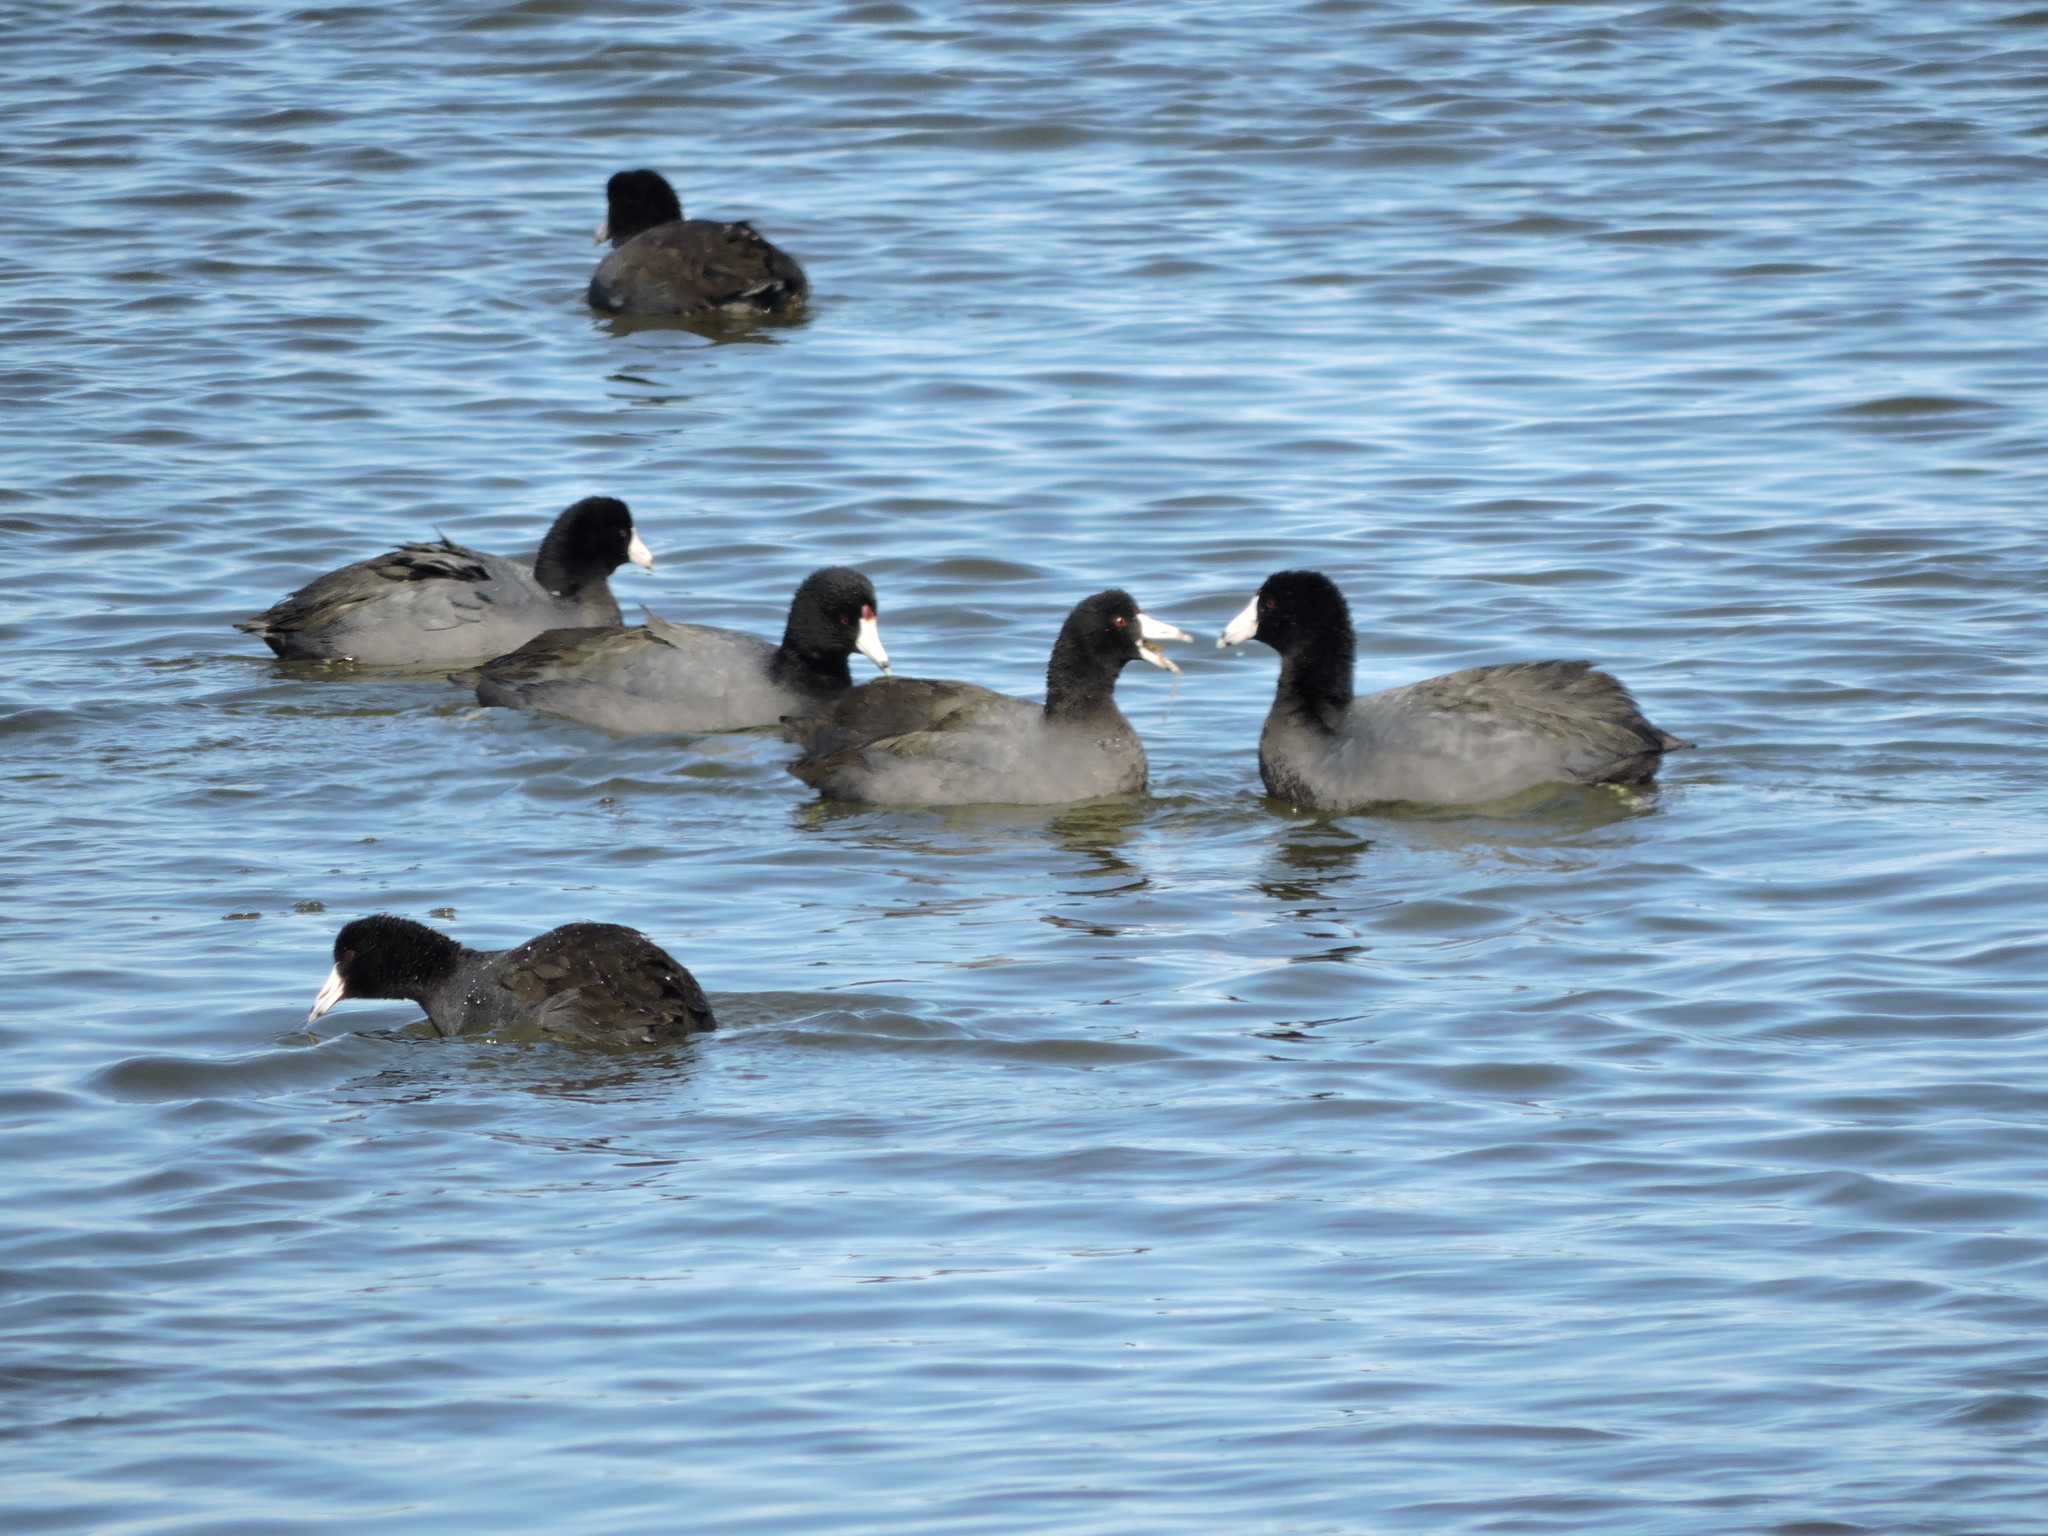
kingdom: Animalia
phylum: Chordata
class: Aves
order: Gruiformes
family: Rallidae
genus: Fulica
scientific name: Fulica americana
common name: American coot
